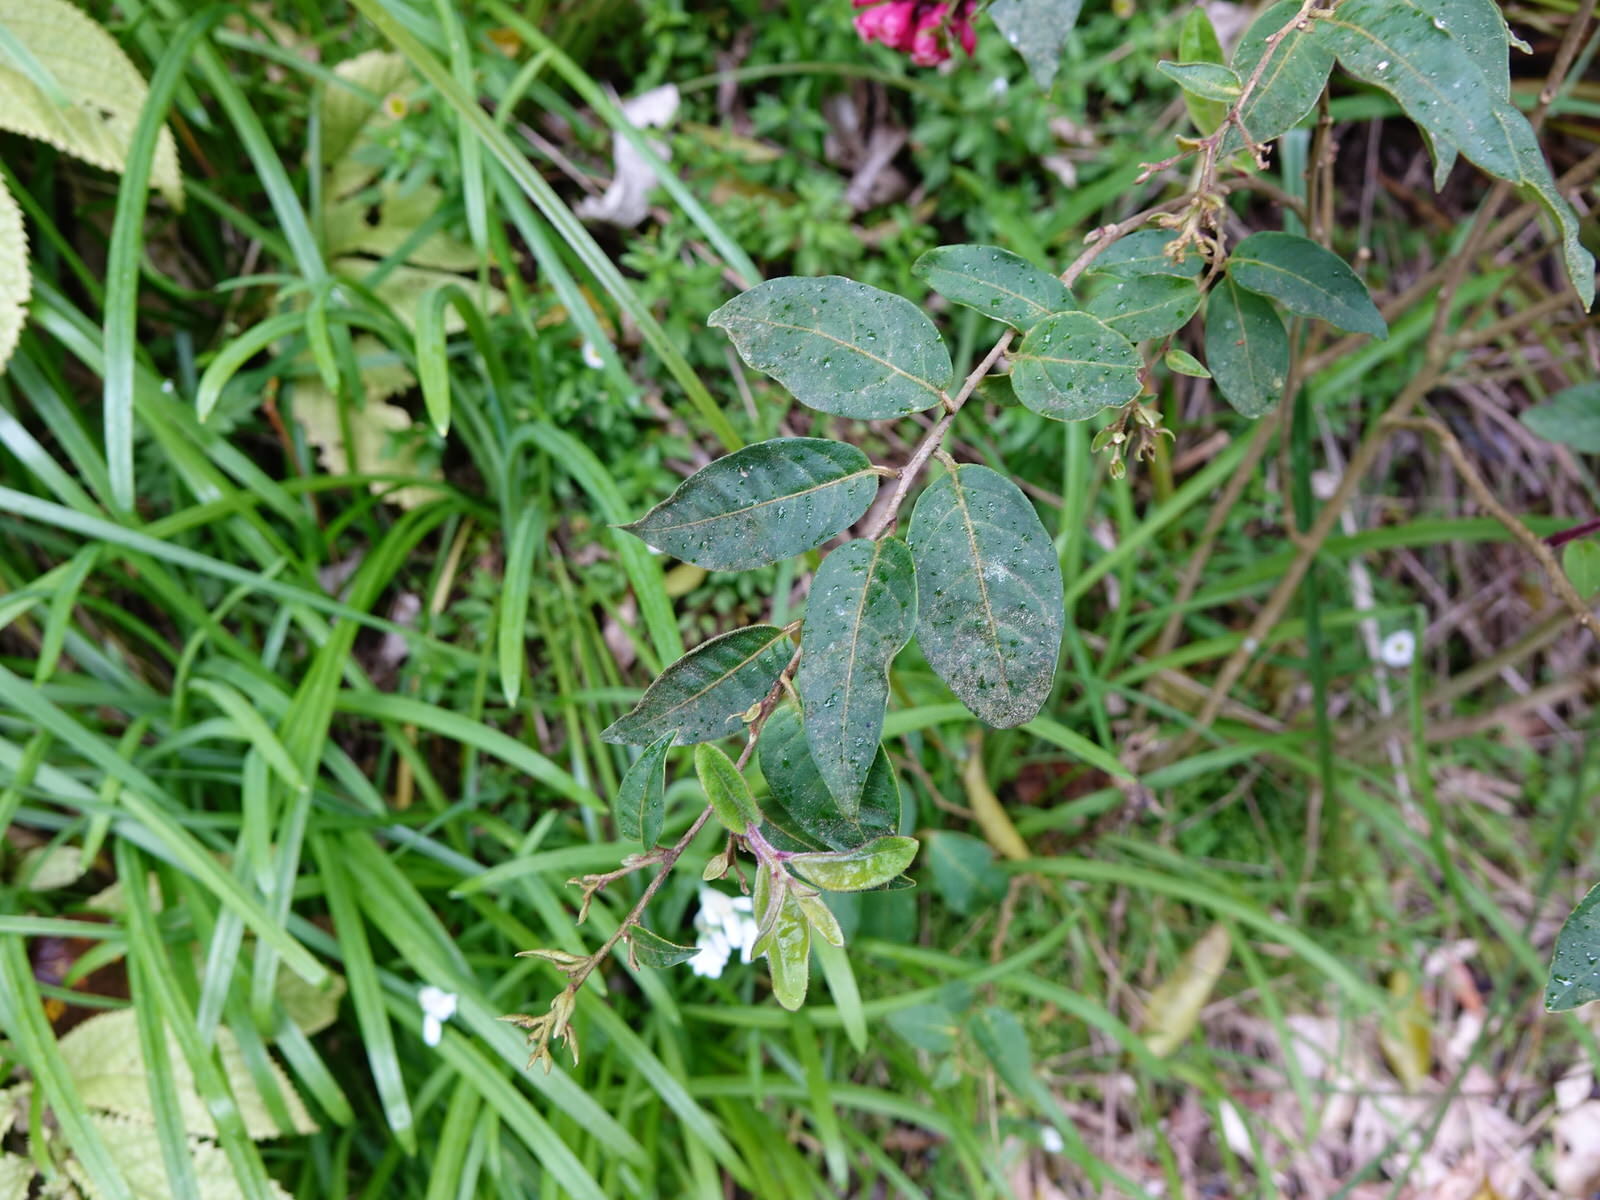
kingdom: Plantae
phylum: Tracheophyta
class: Magnoliopsida
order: Solanales
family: Solanaceae
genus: Cestrum
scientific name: Cestrum fasciculatum
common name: Early jessamine
